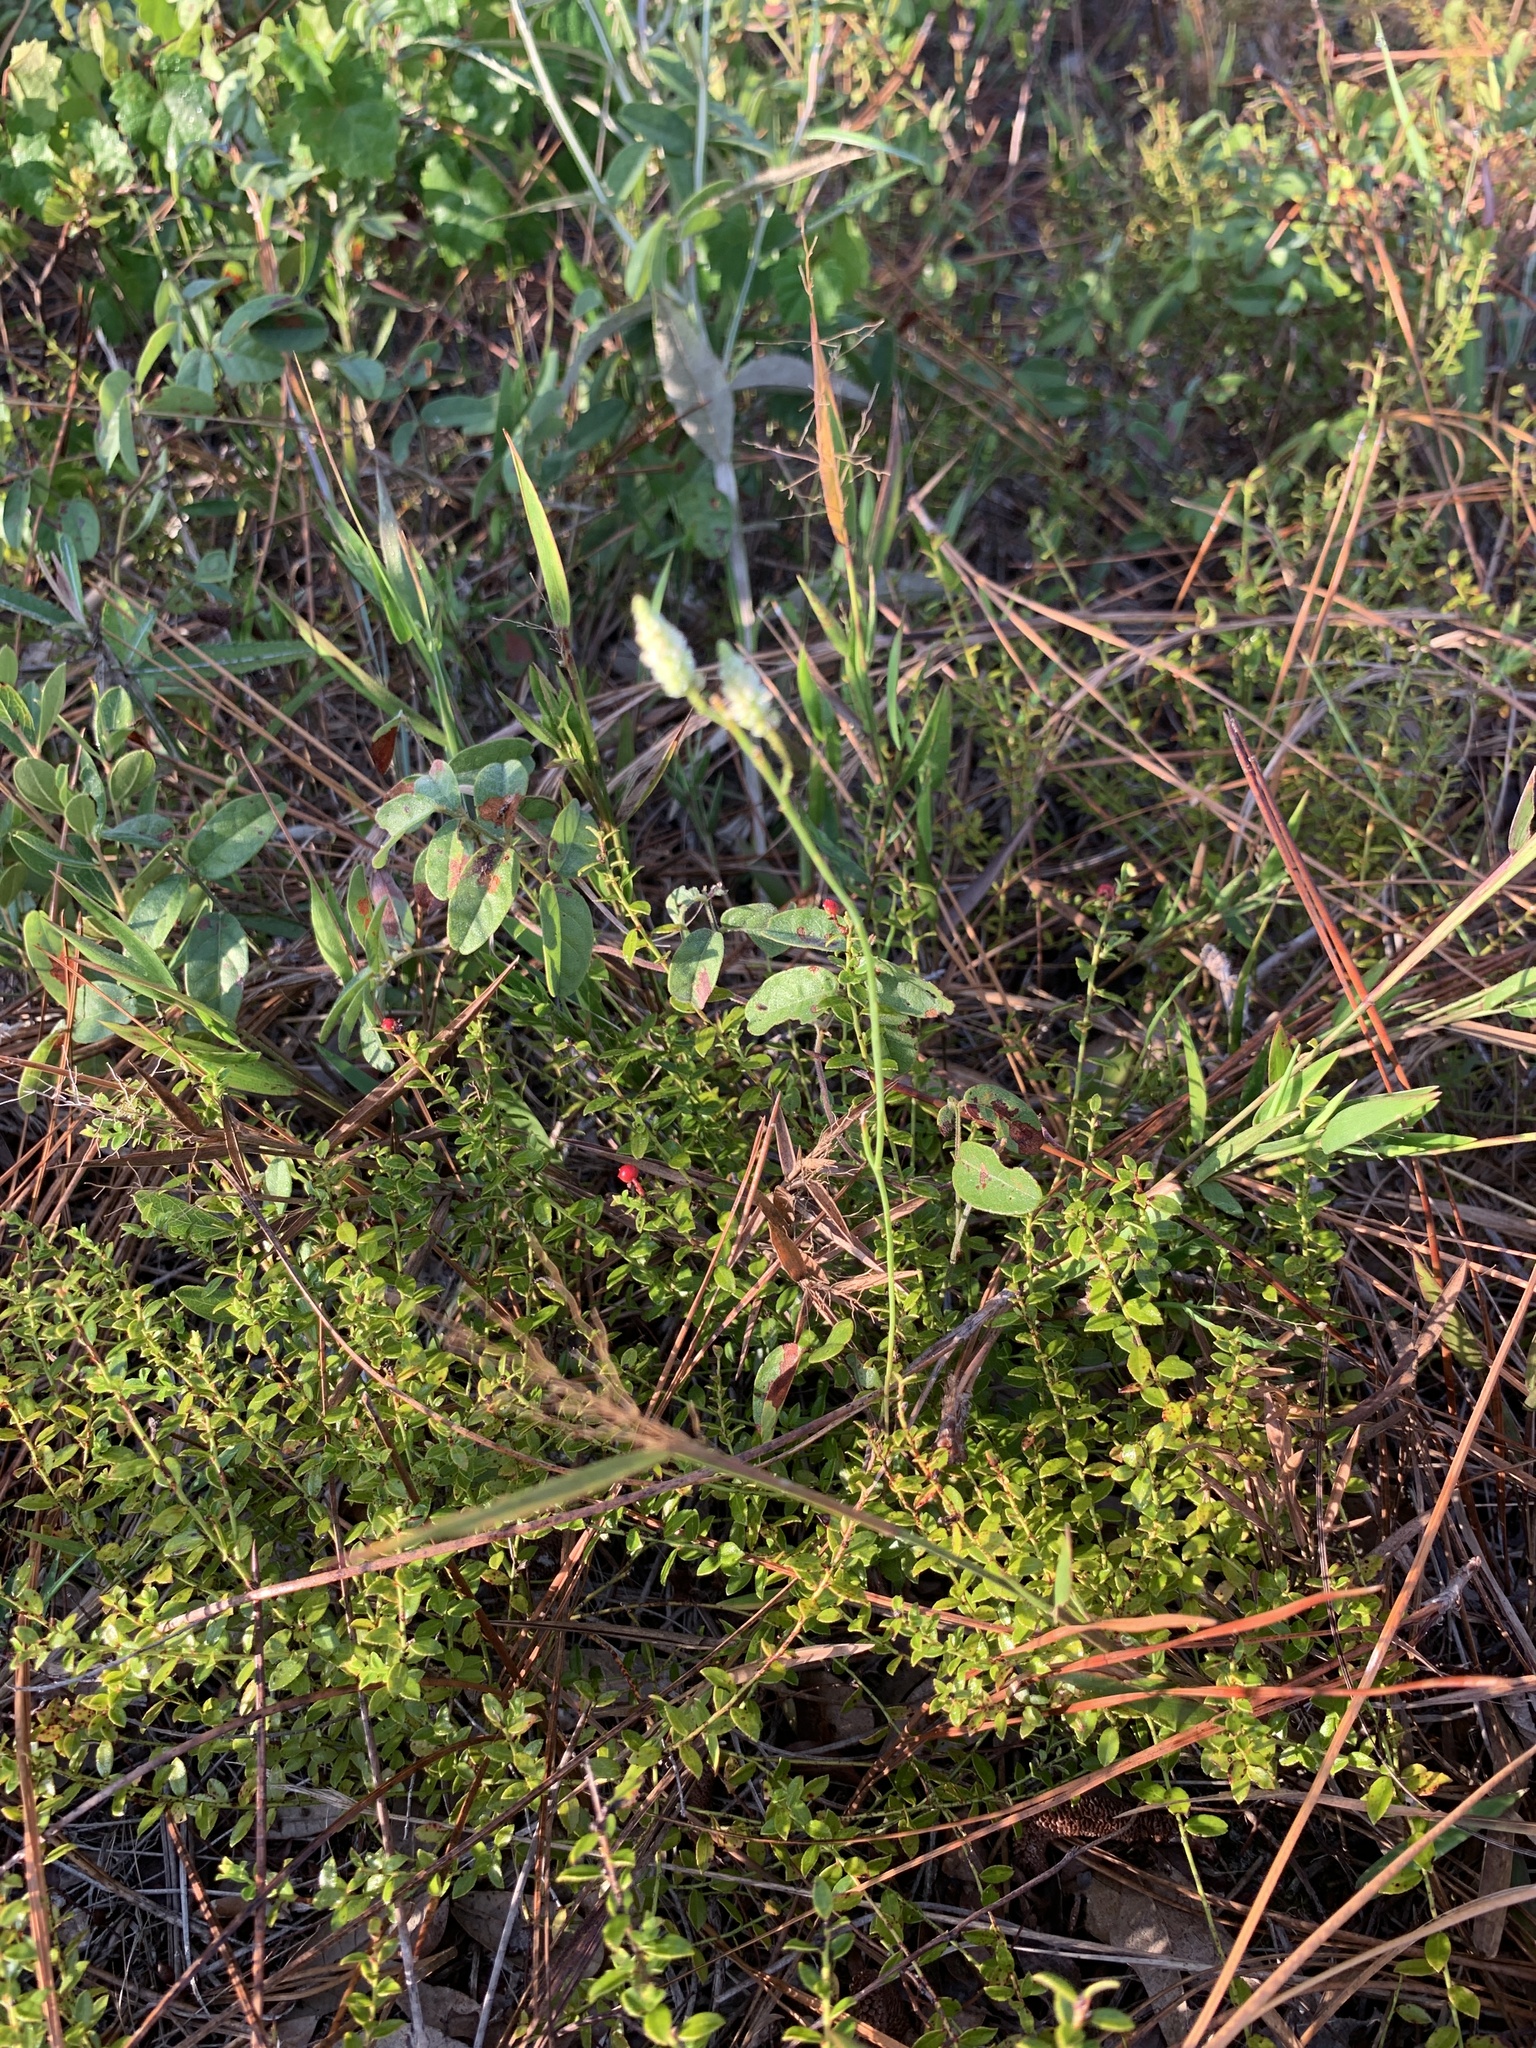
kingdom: Plantae
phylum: Tracheophyta
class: Magnoliopsida
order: Fabales
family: Polygalaceae
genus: Polygala
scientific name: Polygala setacea
